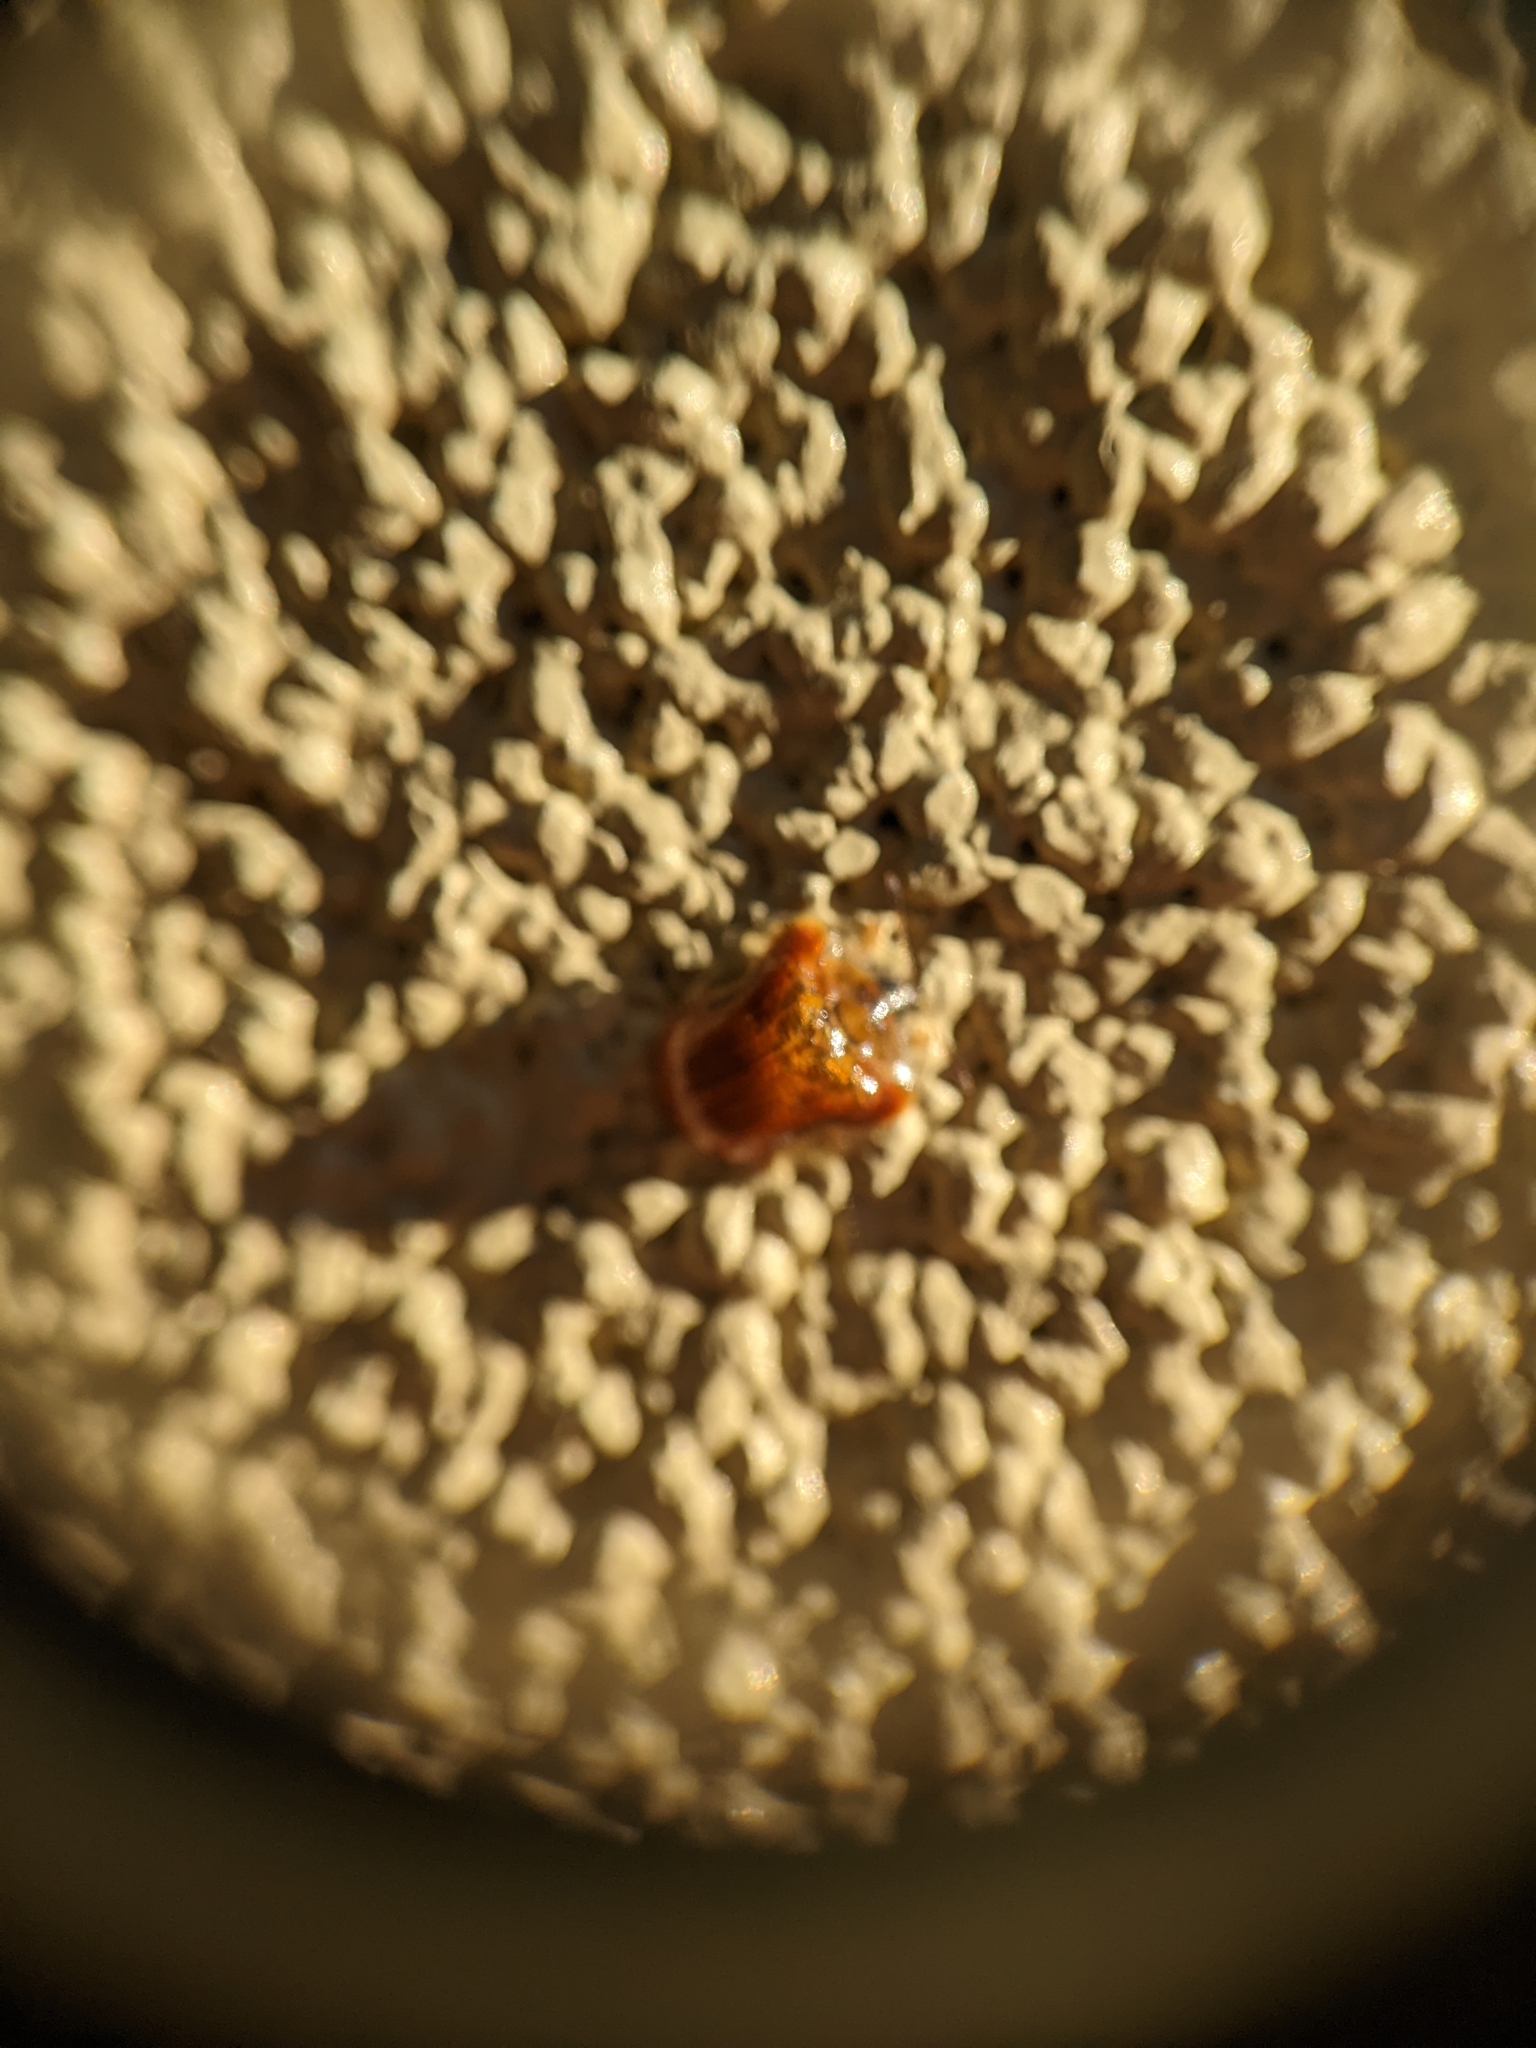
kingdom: Animalia
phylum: Arthropoda
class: Insecta
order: Coleoptera
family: Chrysomelidae
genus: Charidotella
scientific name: Charidotella purpurata
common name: Small orange tortoise beetle
